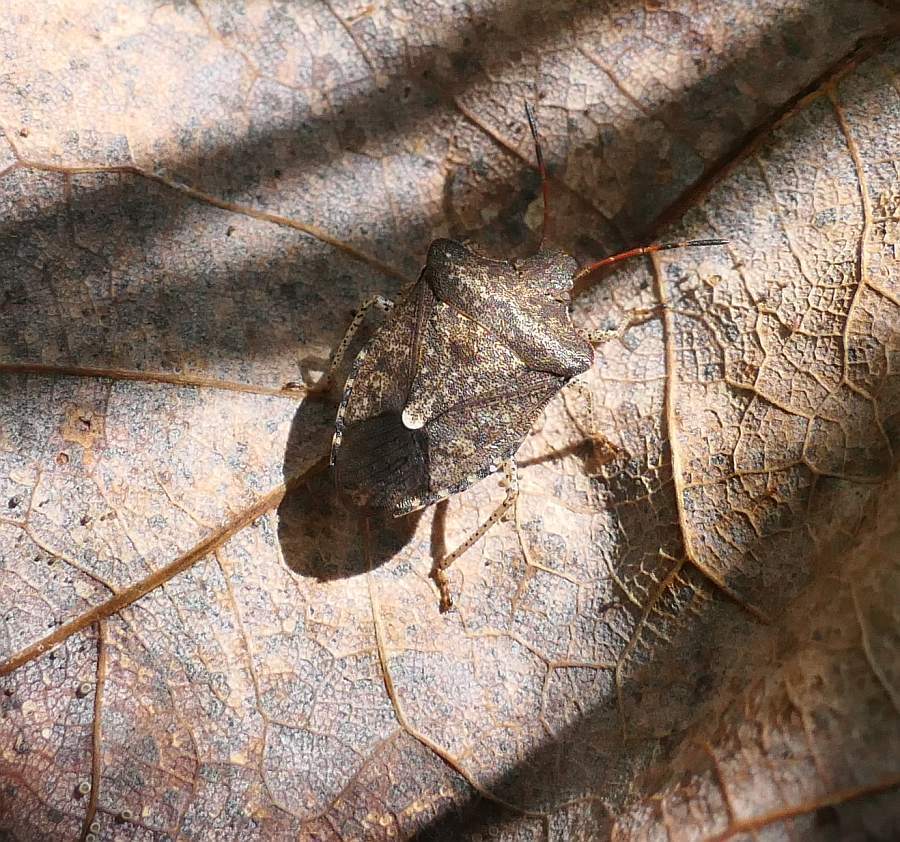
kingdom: Animalia
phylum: Arthropoda
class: Insecta
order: Hemiptera
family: Pentatomidae
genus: Euschistus
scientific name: Euschistus tristigmus
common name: Dusky stink bug
